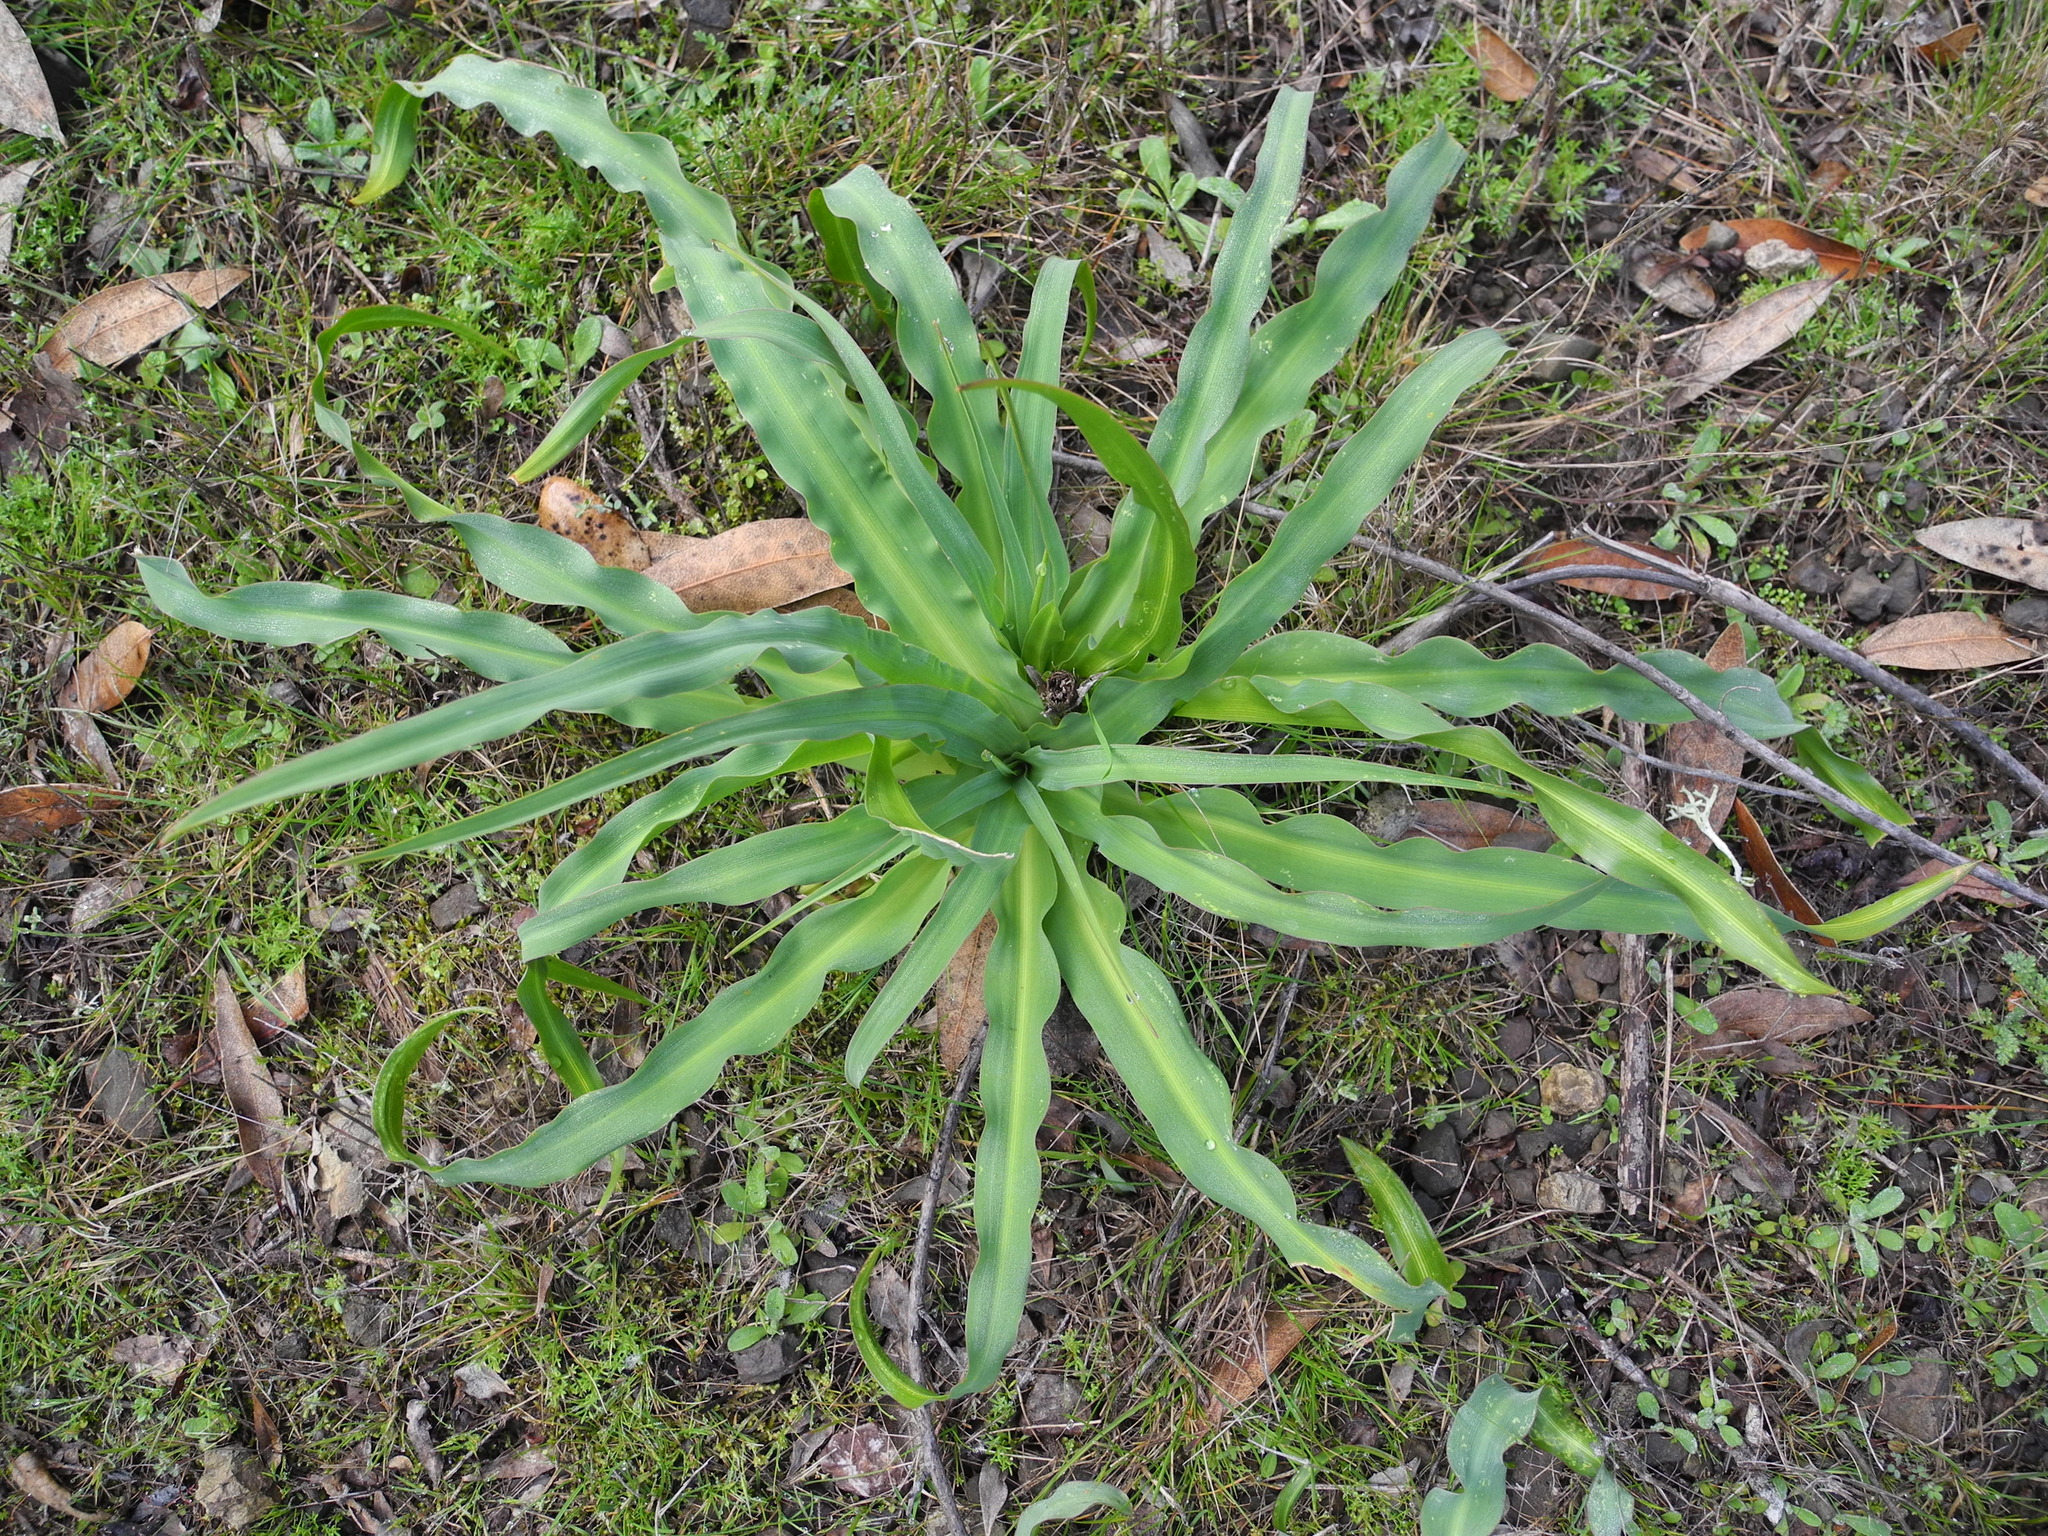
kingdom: Plantae
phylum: Tracheophyta
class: Liliopsida
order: Asparagales
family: Asparagaceae
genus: Chlorogalum
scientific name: Chlorogalum pomeridianum
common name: Amole
